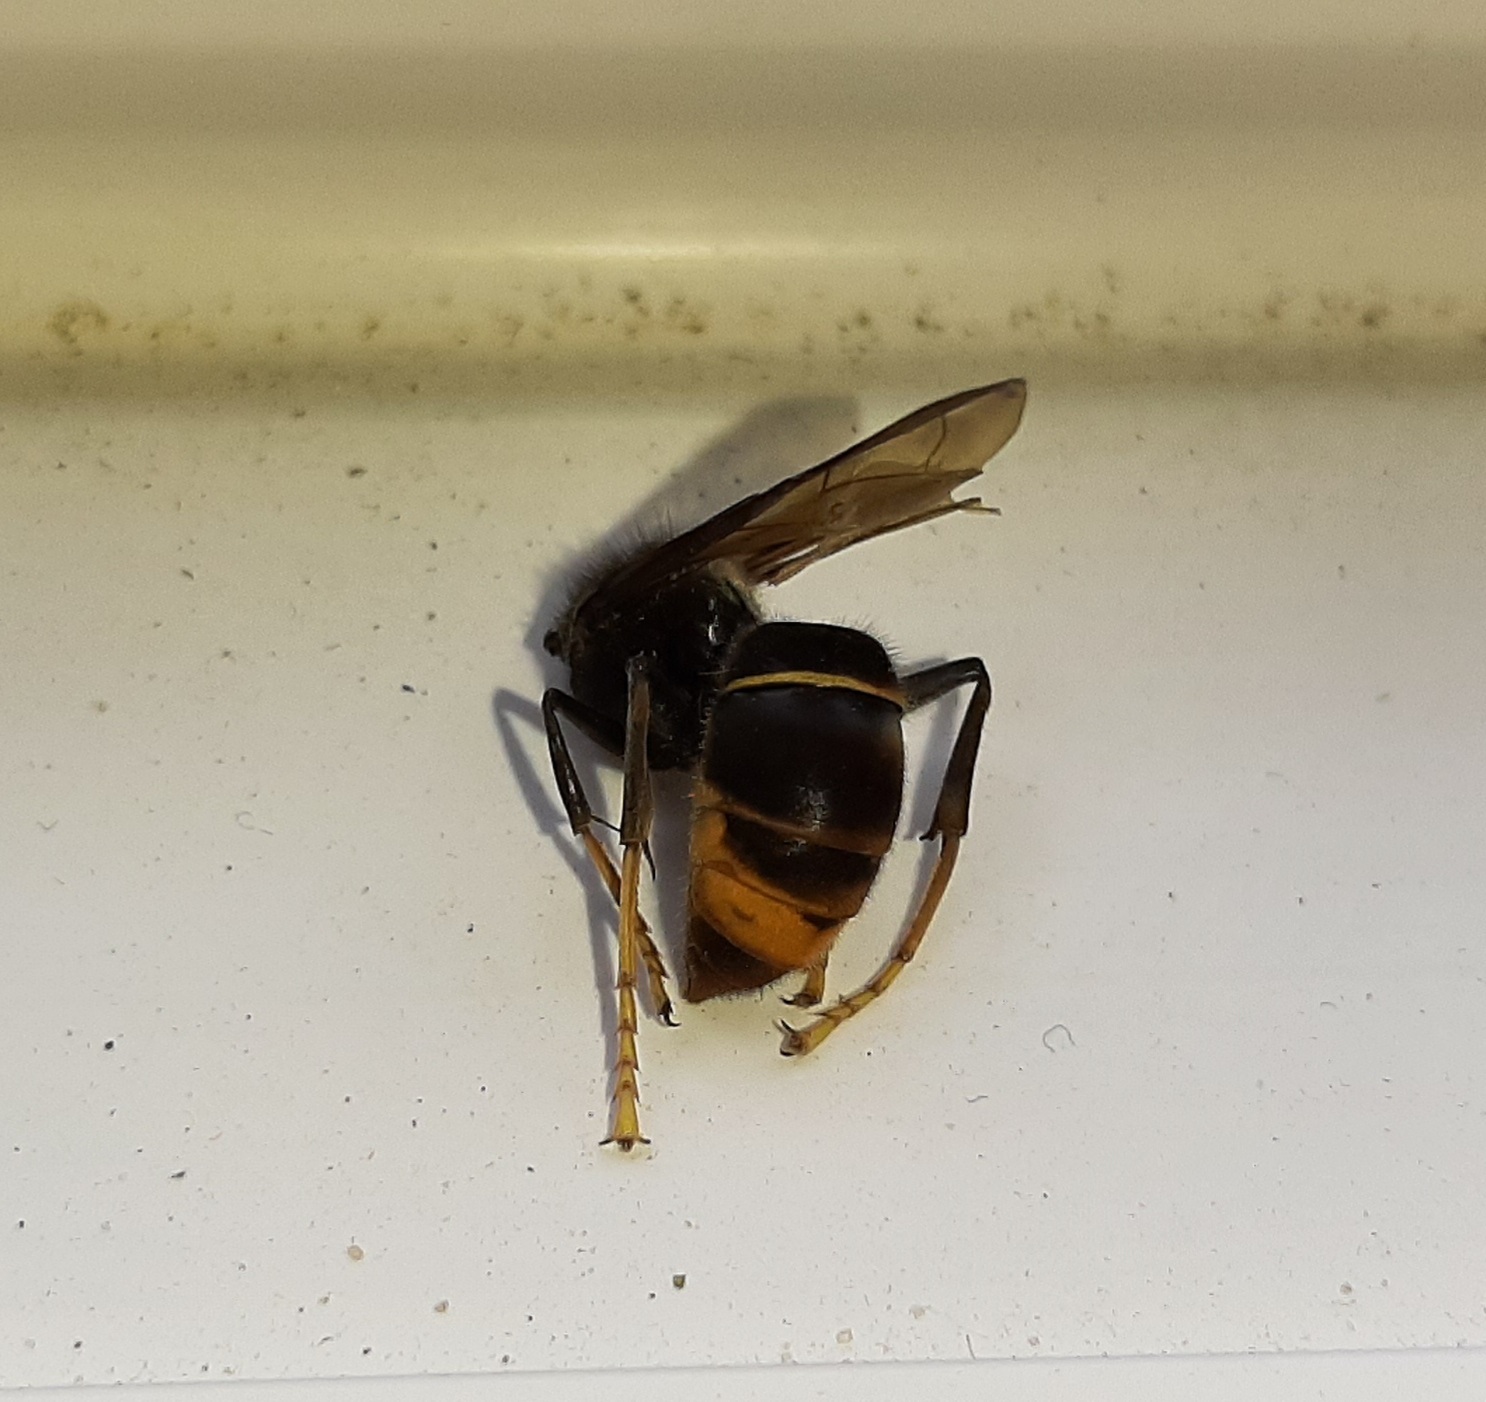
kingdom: Animalia
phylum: Arthropoda
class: Insecta
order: Hymenoptera
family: Vespidae
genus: Vespa
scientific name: Vespa velutina
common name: Asian hornet
